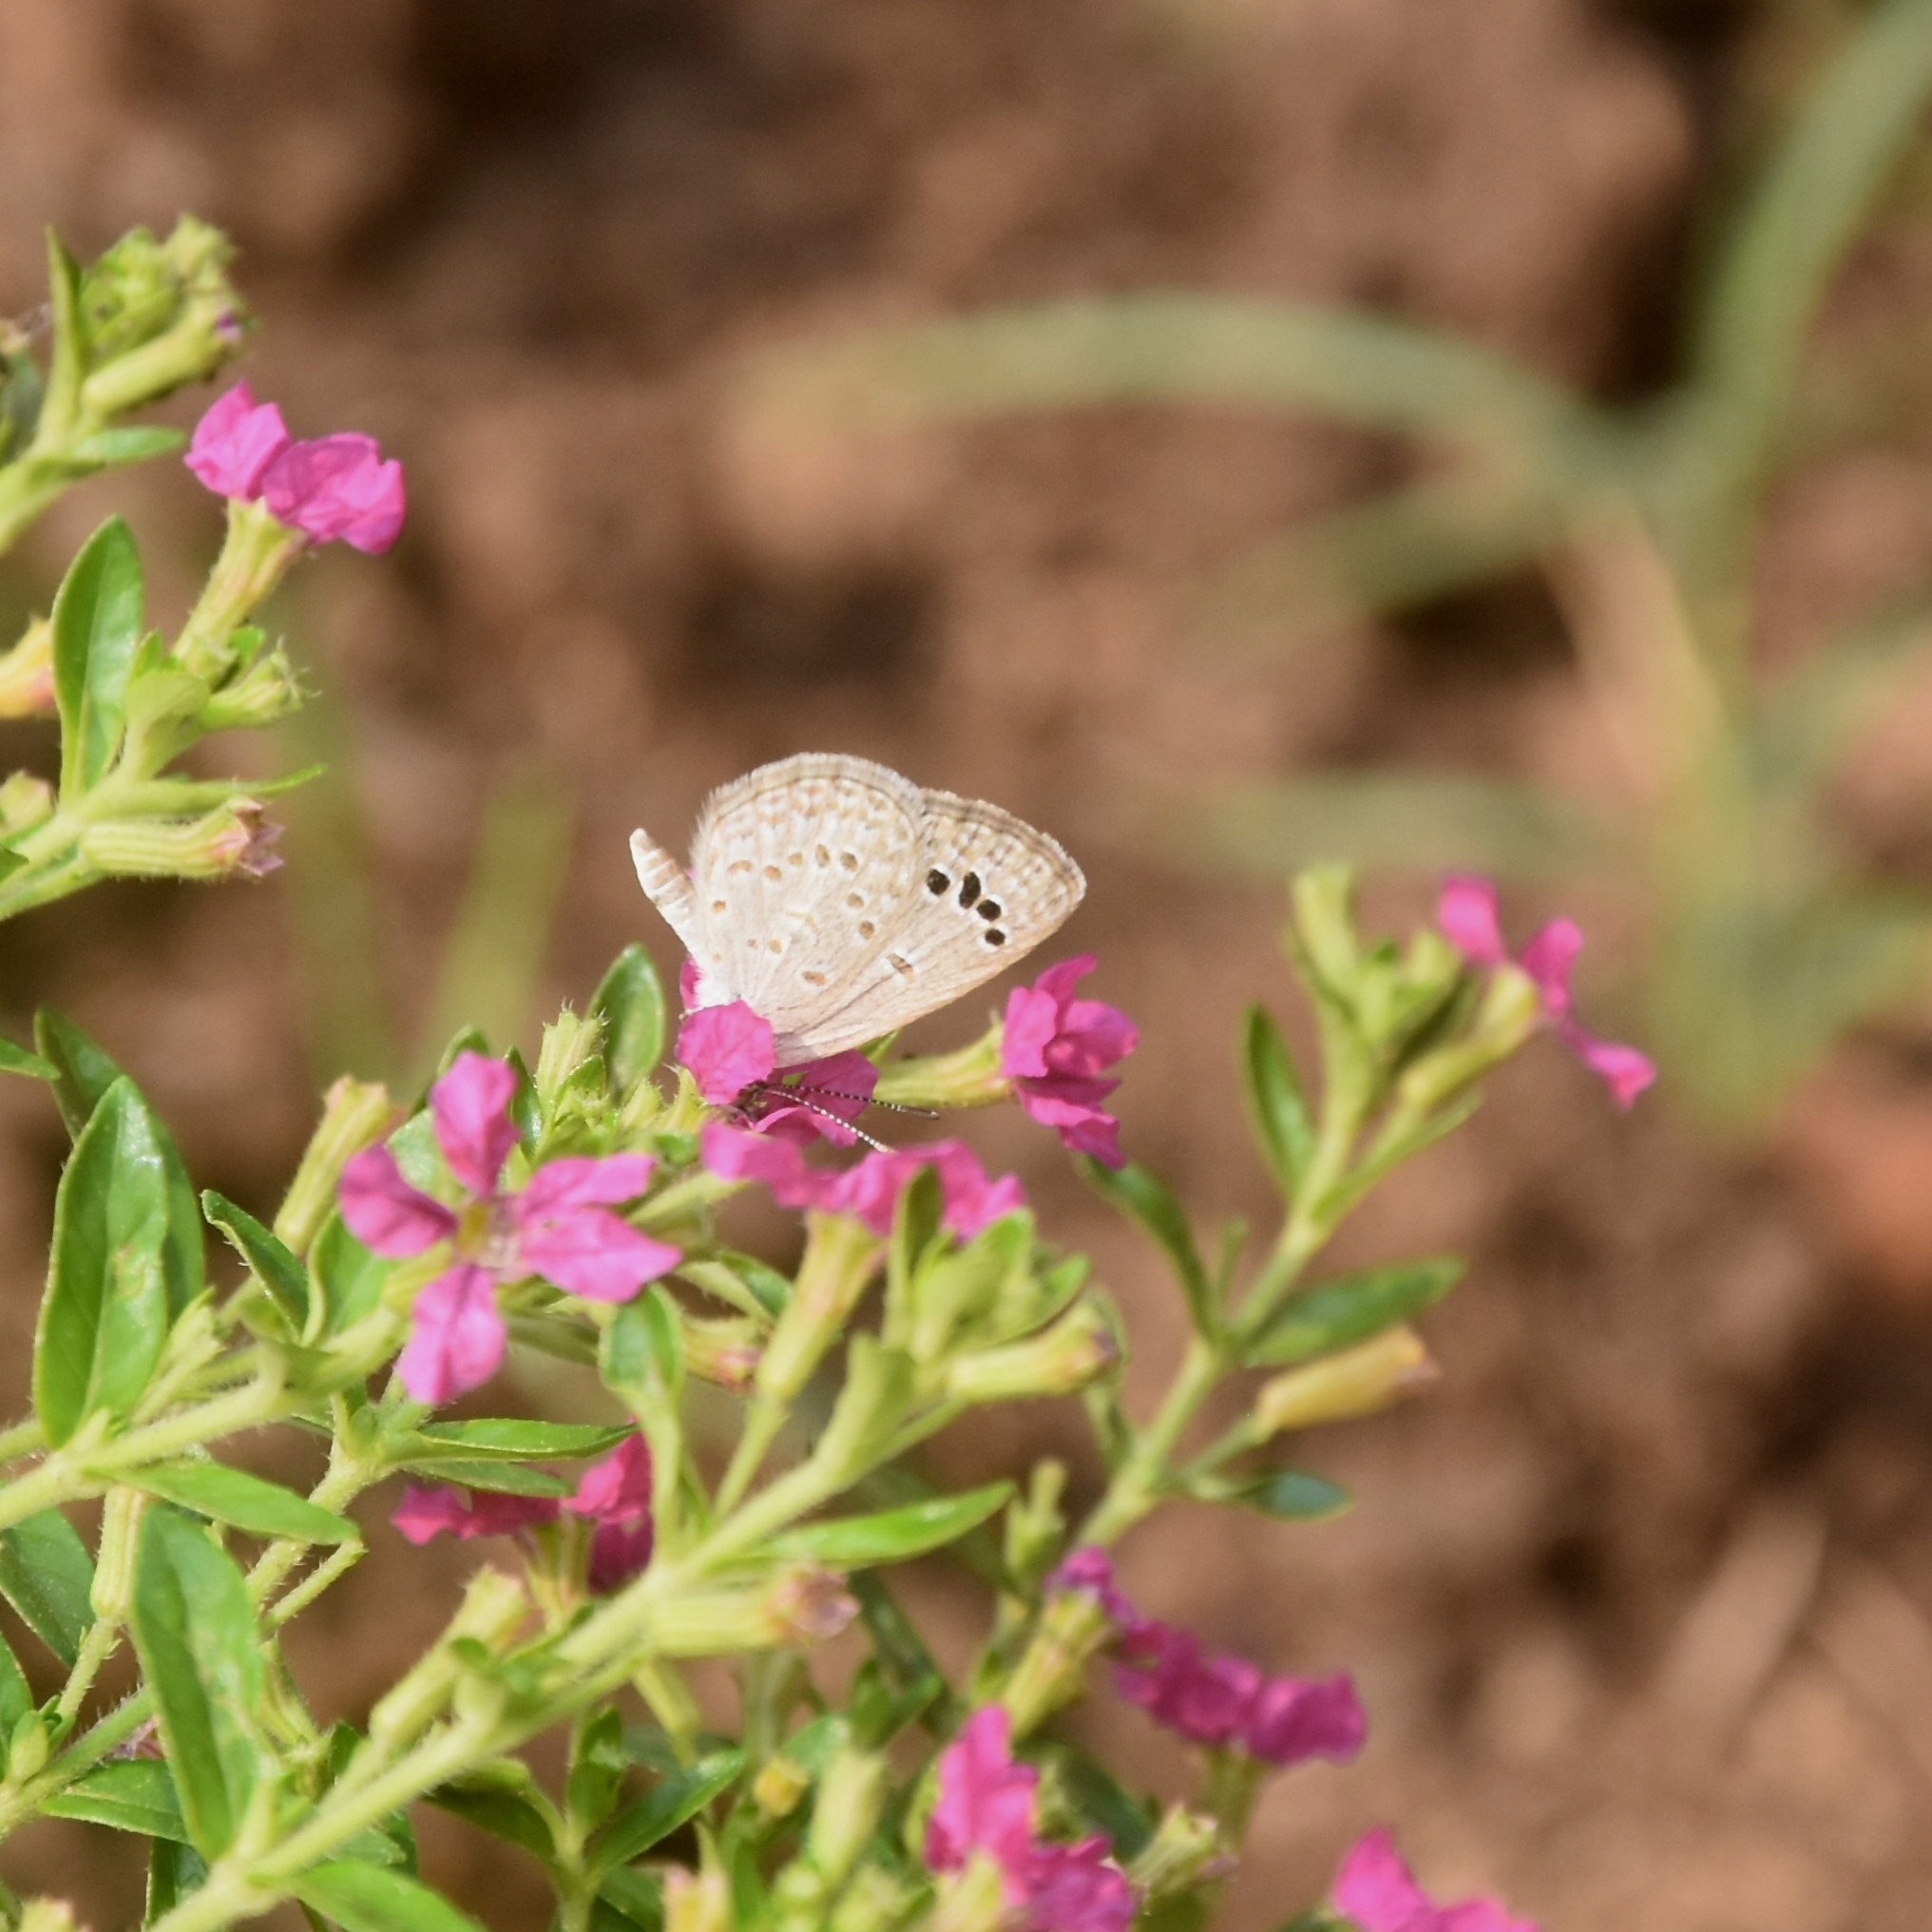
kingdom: Animalia
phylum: Arthropoda
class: Insecta
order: Lepidoptera
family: Lycaenidae
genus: Zizina
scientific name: Zizina otis
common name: Lesser grass blue
